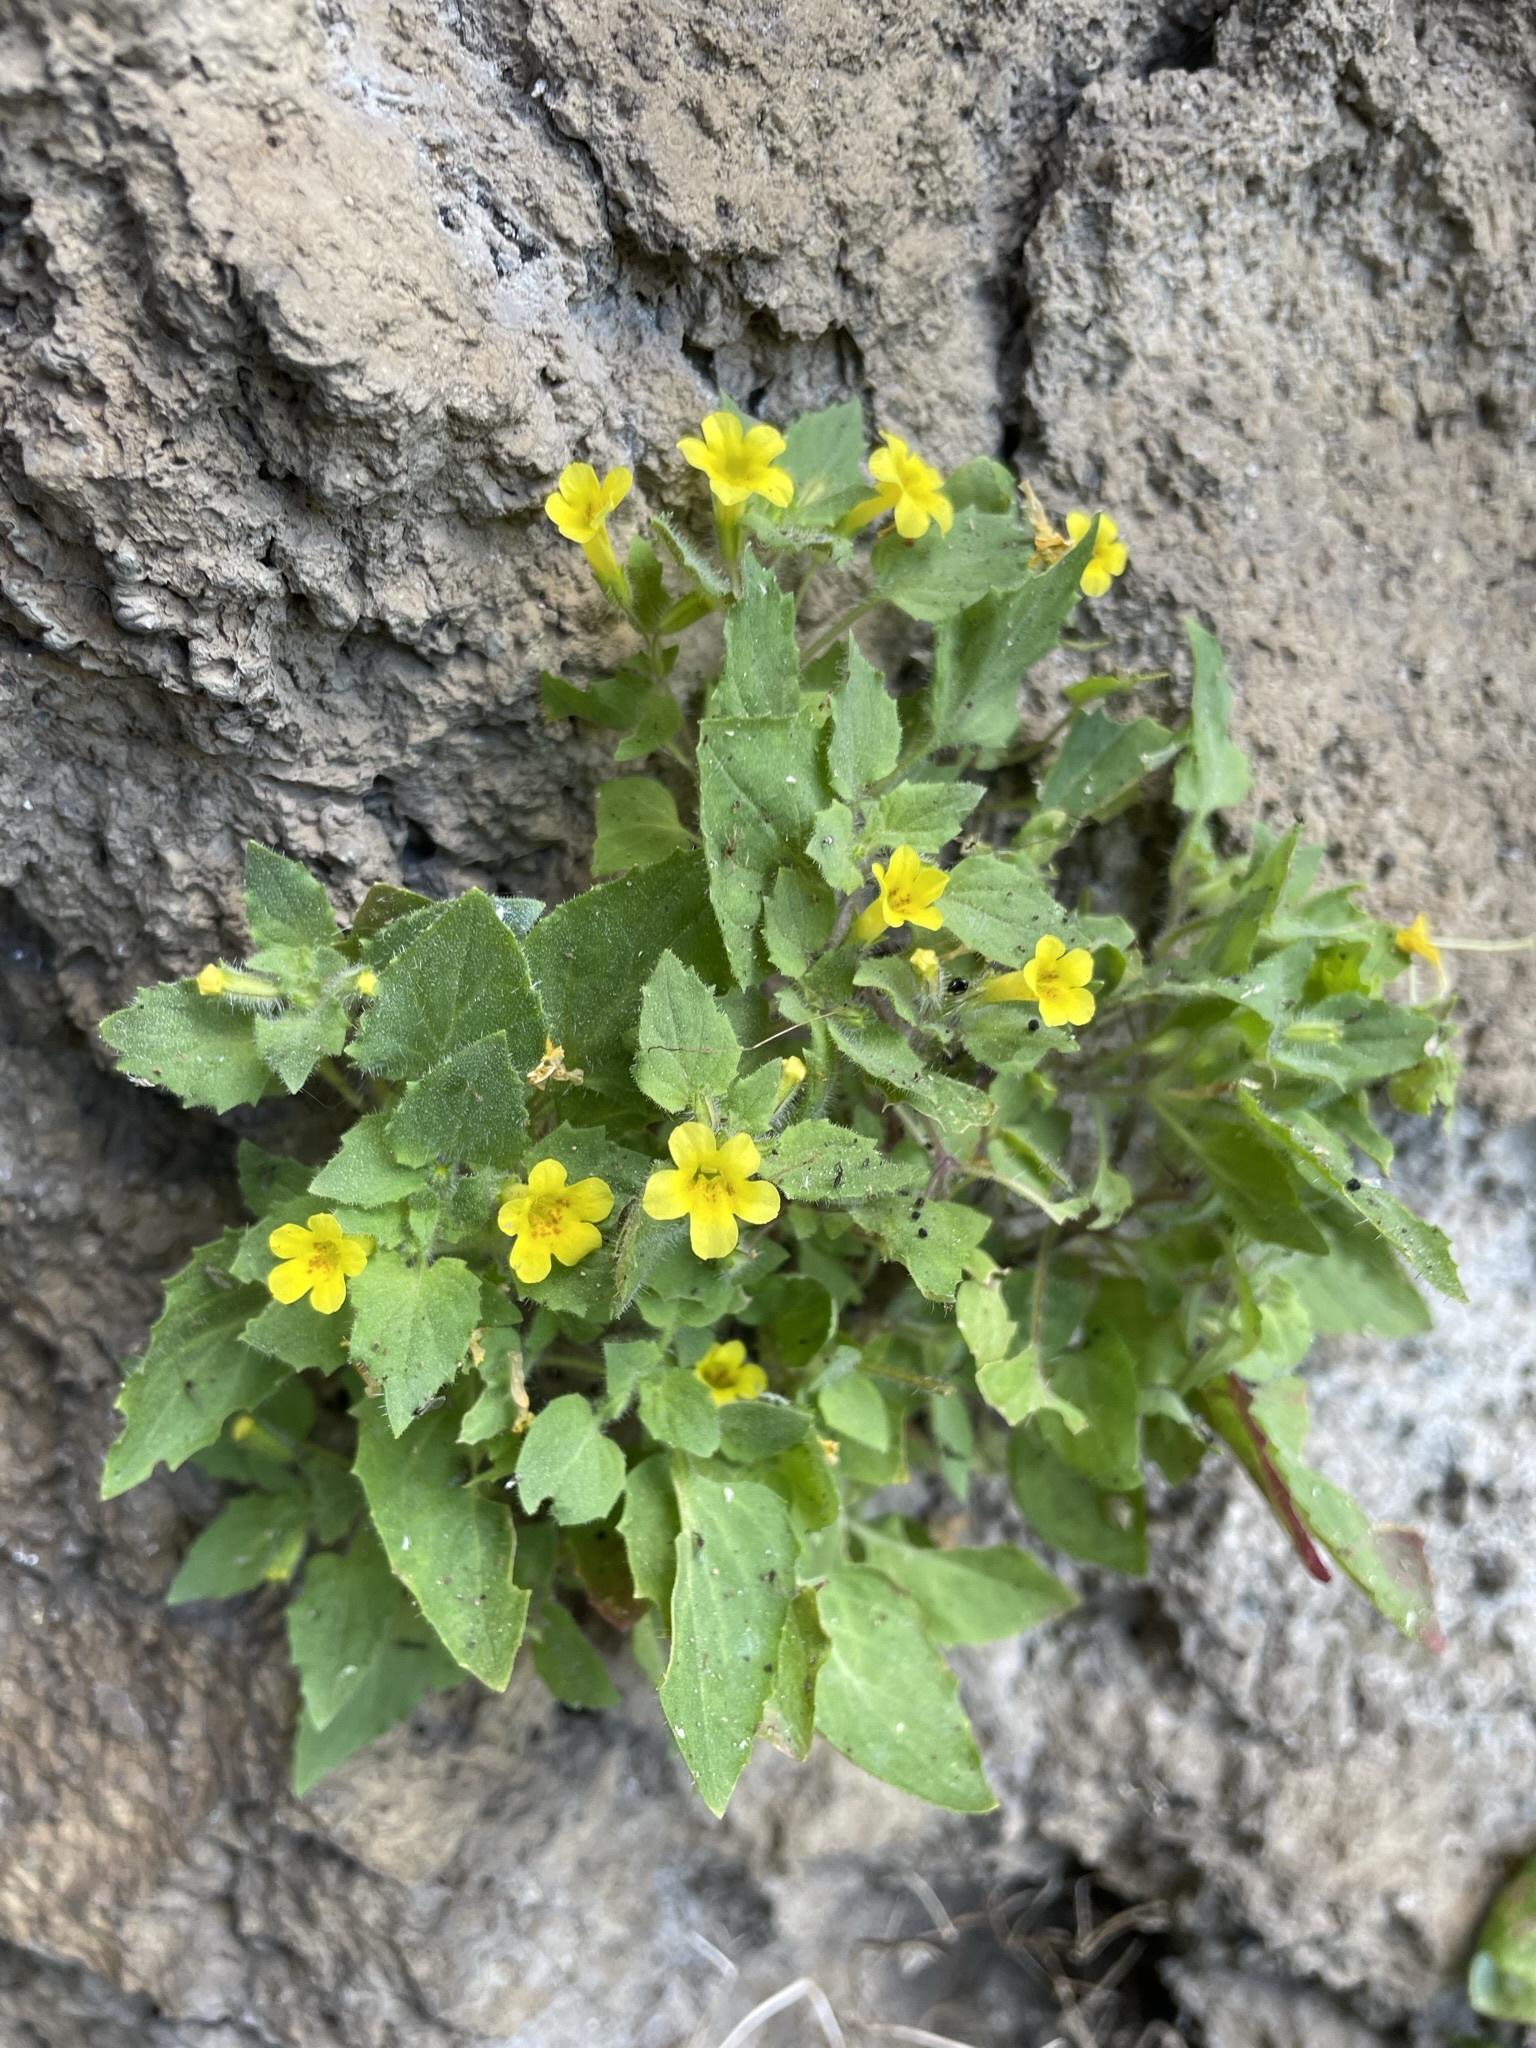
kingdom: Plantae
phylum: Tracheophyta
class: Magnoliopsida
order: Lamiales
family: Phrymaceae
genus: Erythranthe
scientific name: Erythranthe geniculata
